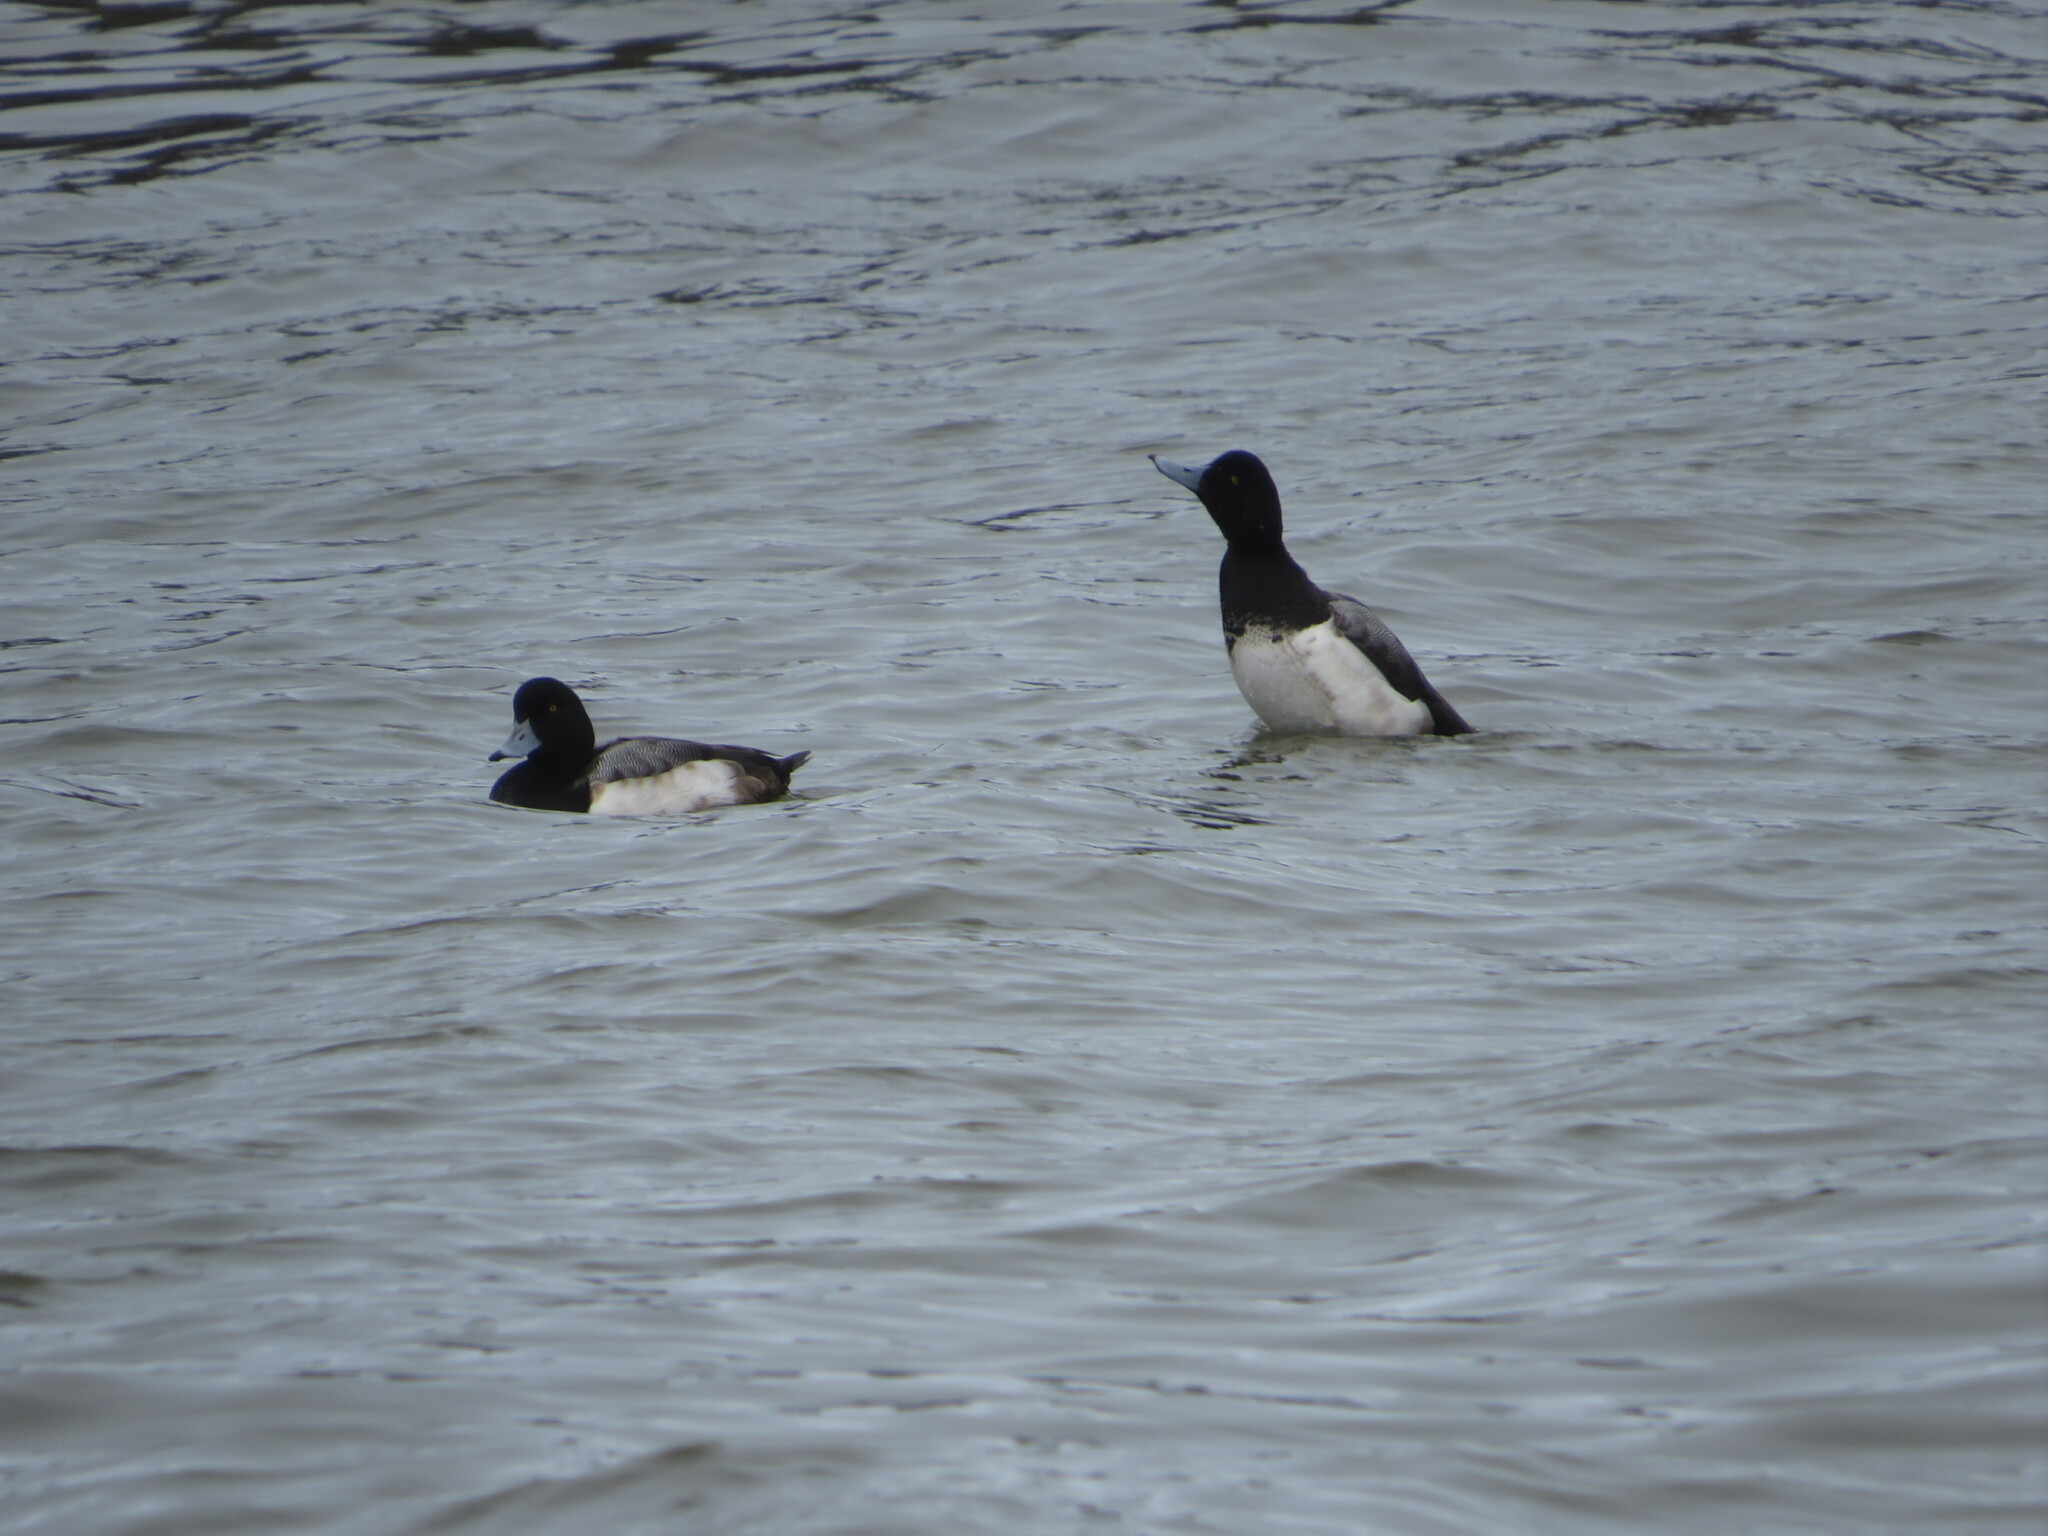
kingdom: Animalia
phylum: Chordata
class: Aves
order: Anseriformes
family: Anatidae
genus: Aythya
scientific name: Aythya marila
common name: Greater scaup
